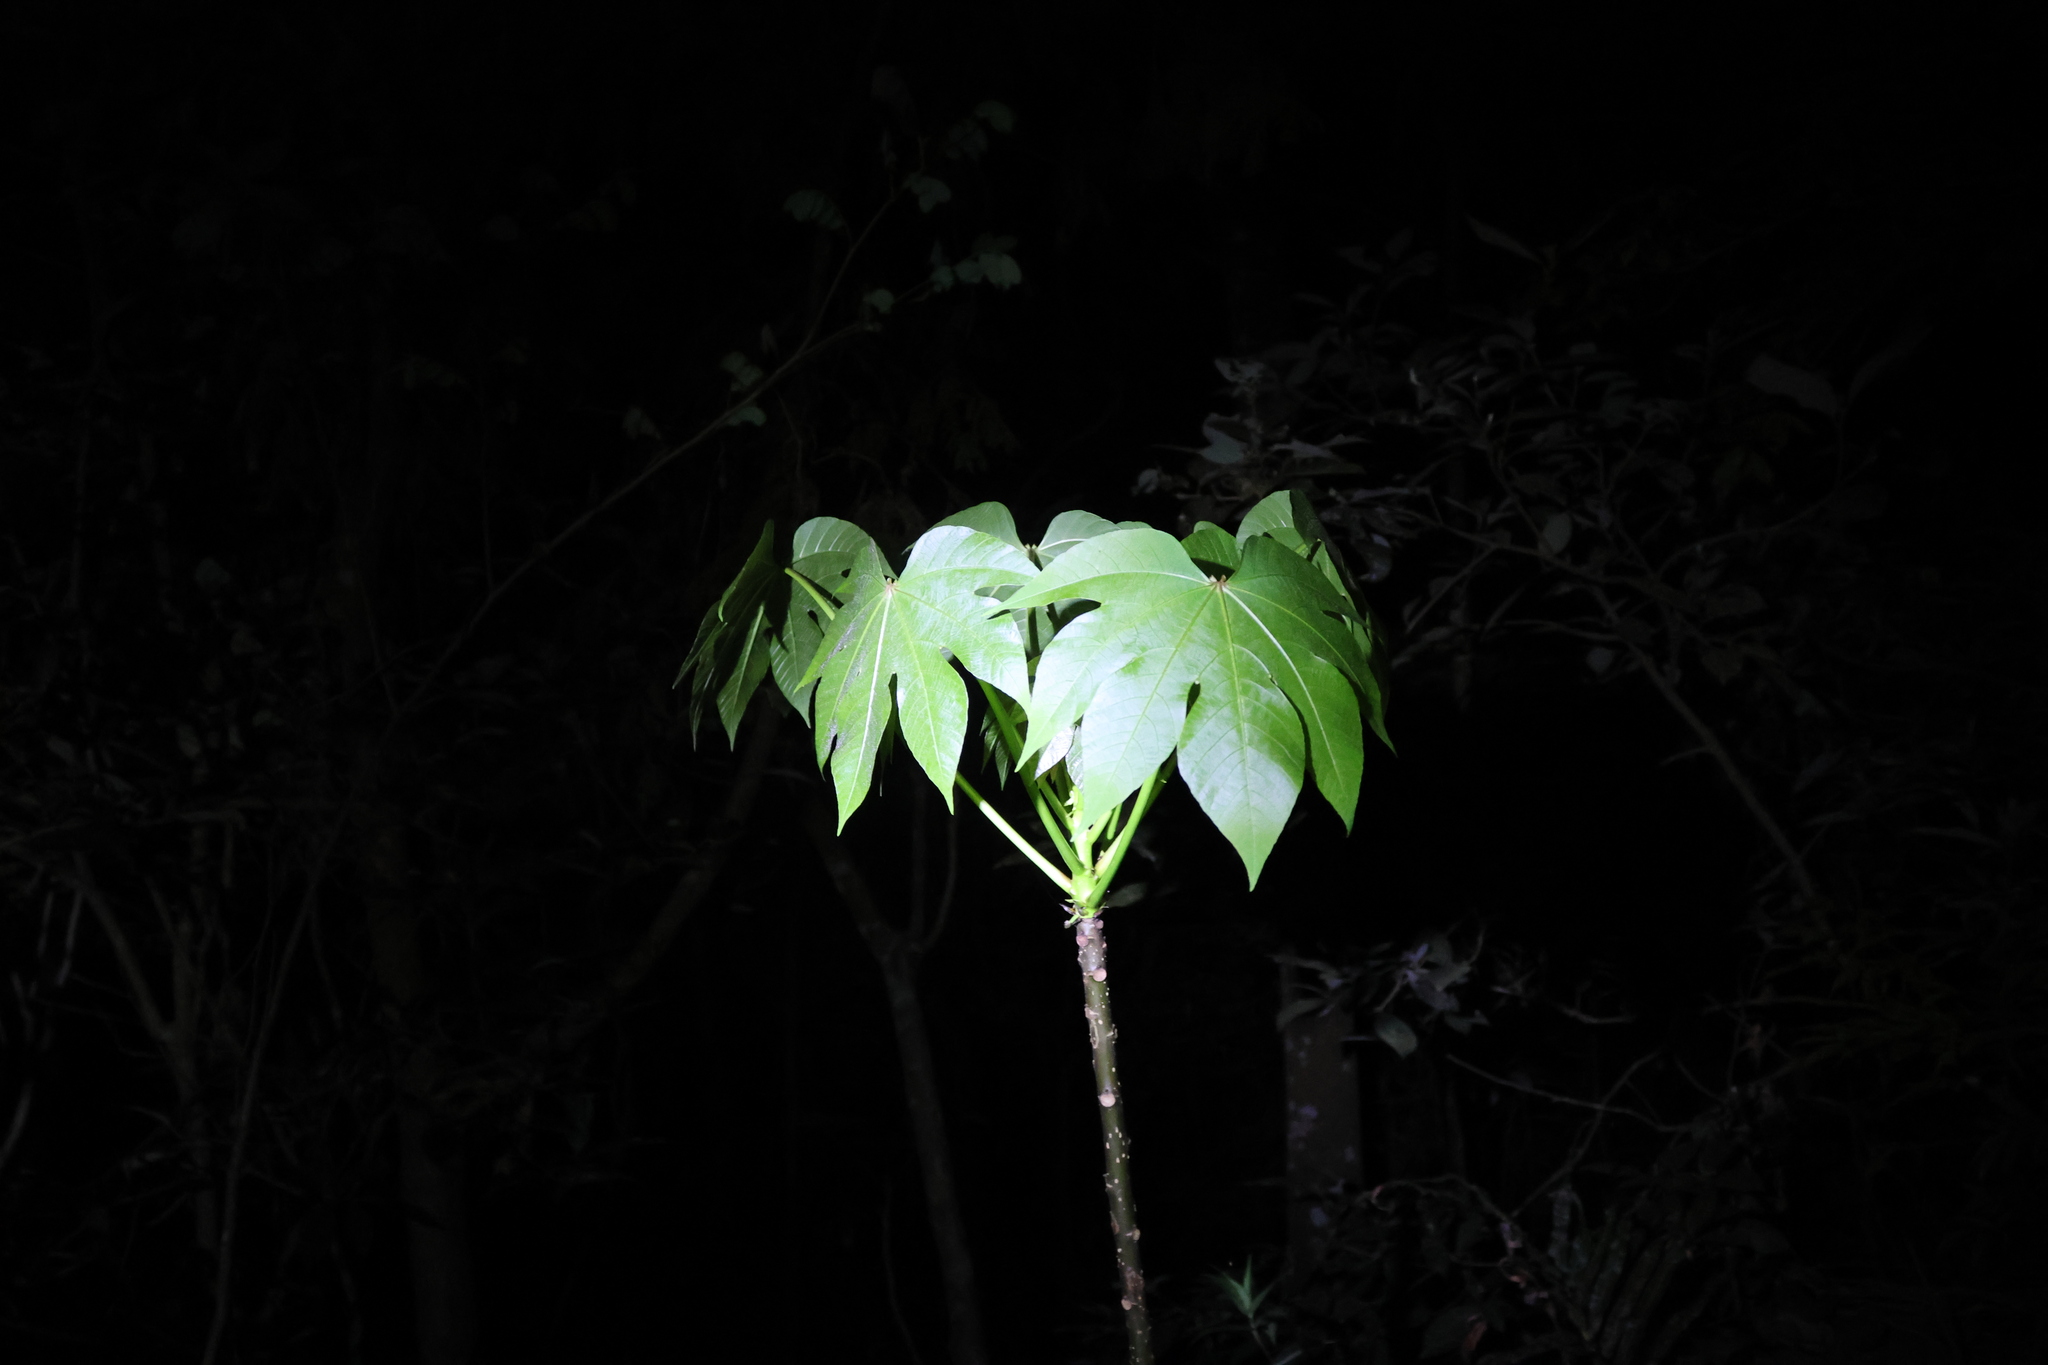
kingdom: Plantae
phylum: Tracheophyta
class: Magnoliopsida
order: Malpighiales
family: Euphorbiaceae
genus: Vernicia
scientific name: Vernicia montana
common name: Mu oil tree
